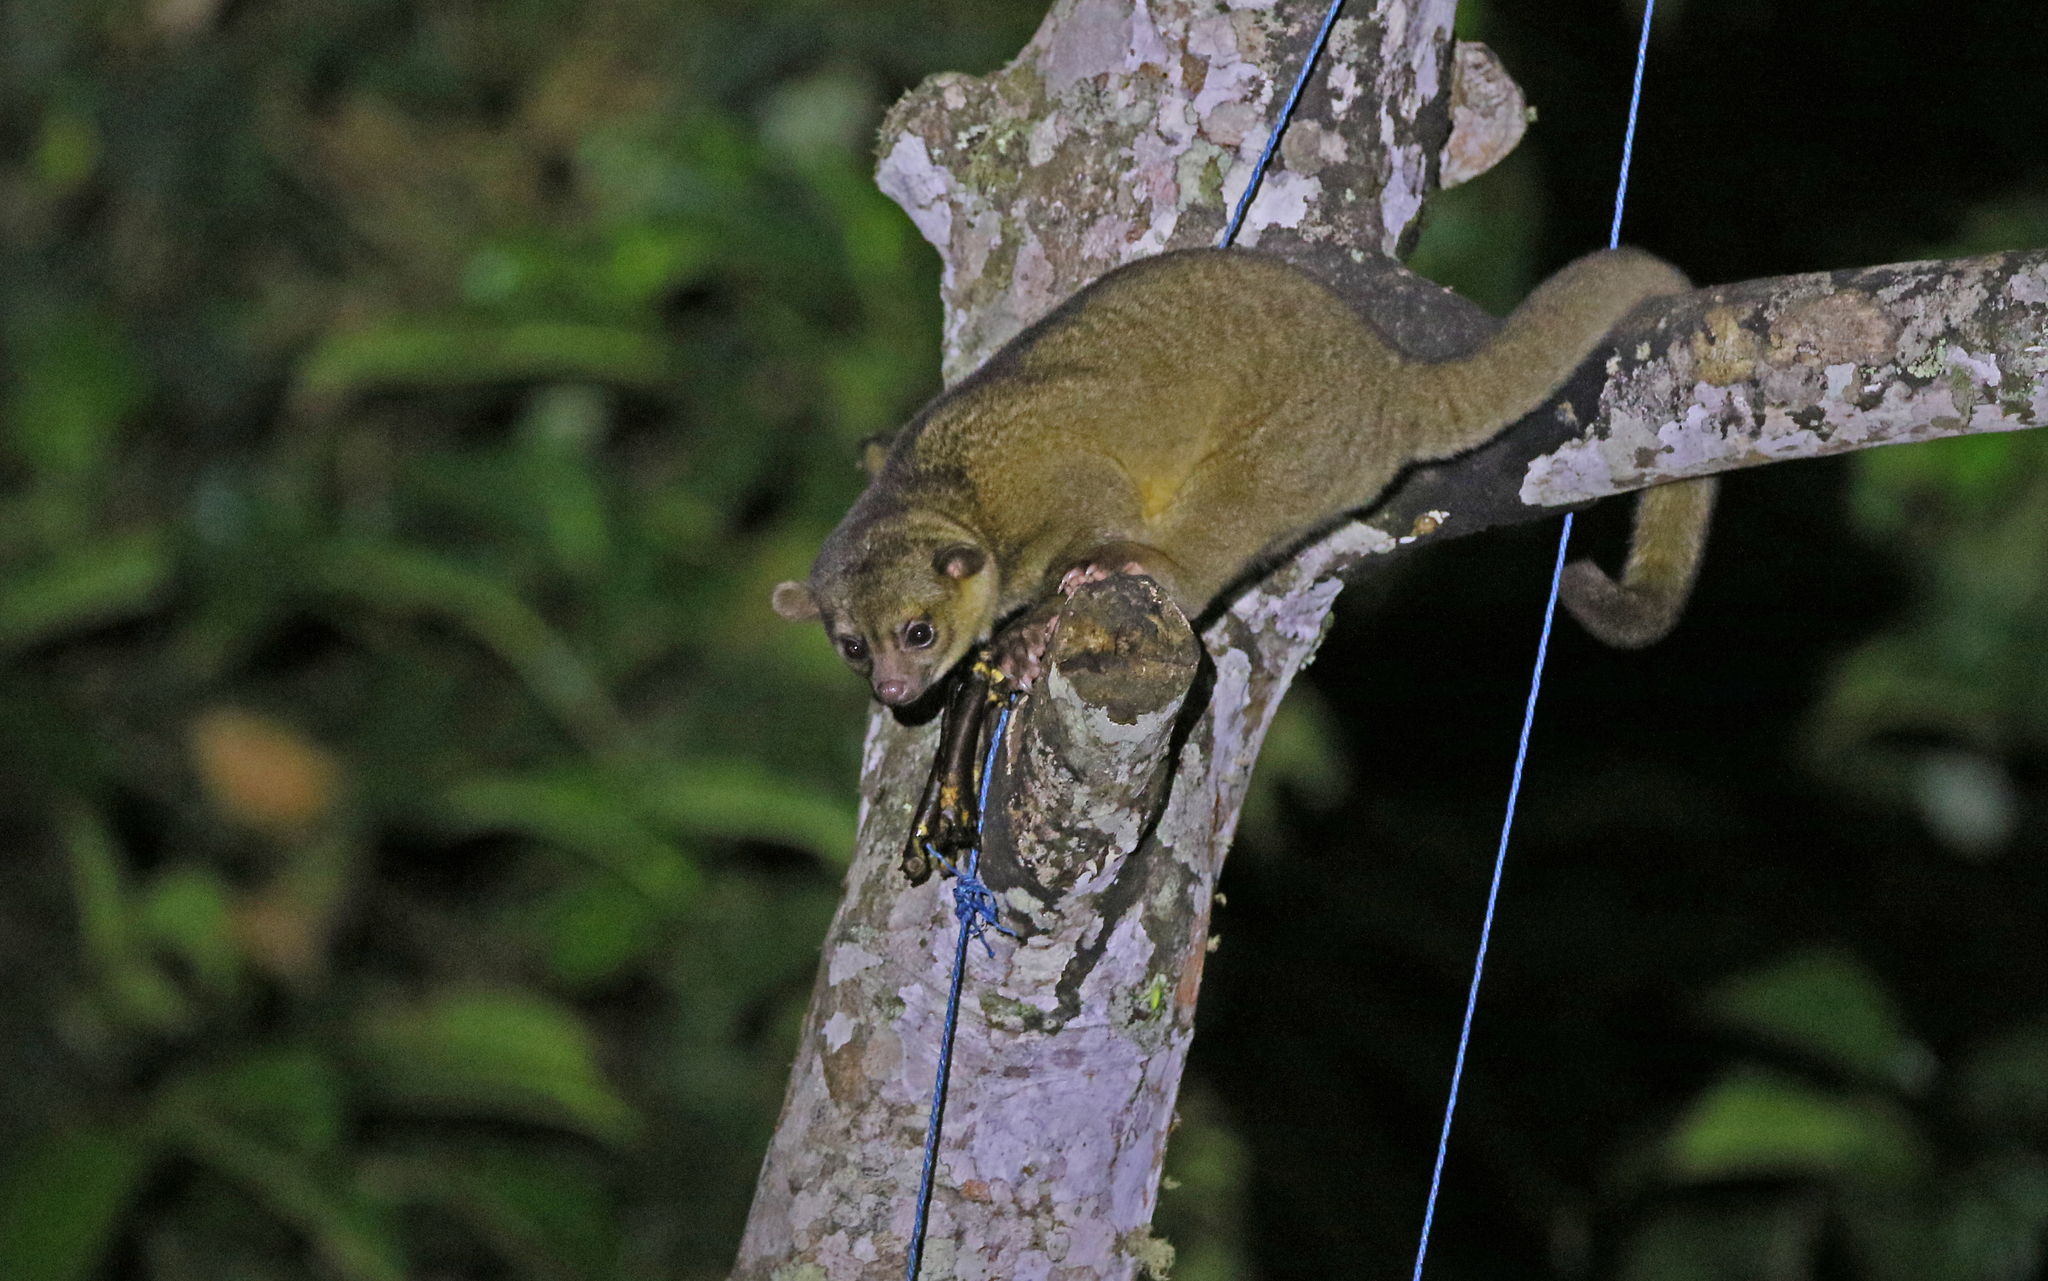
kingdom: Animalia
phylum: Chordata
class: Mammalia
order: Carnivora
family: Procyonidae
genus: Potos
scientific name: Potos flavus
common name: Kinkajou
